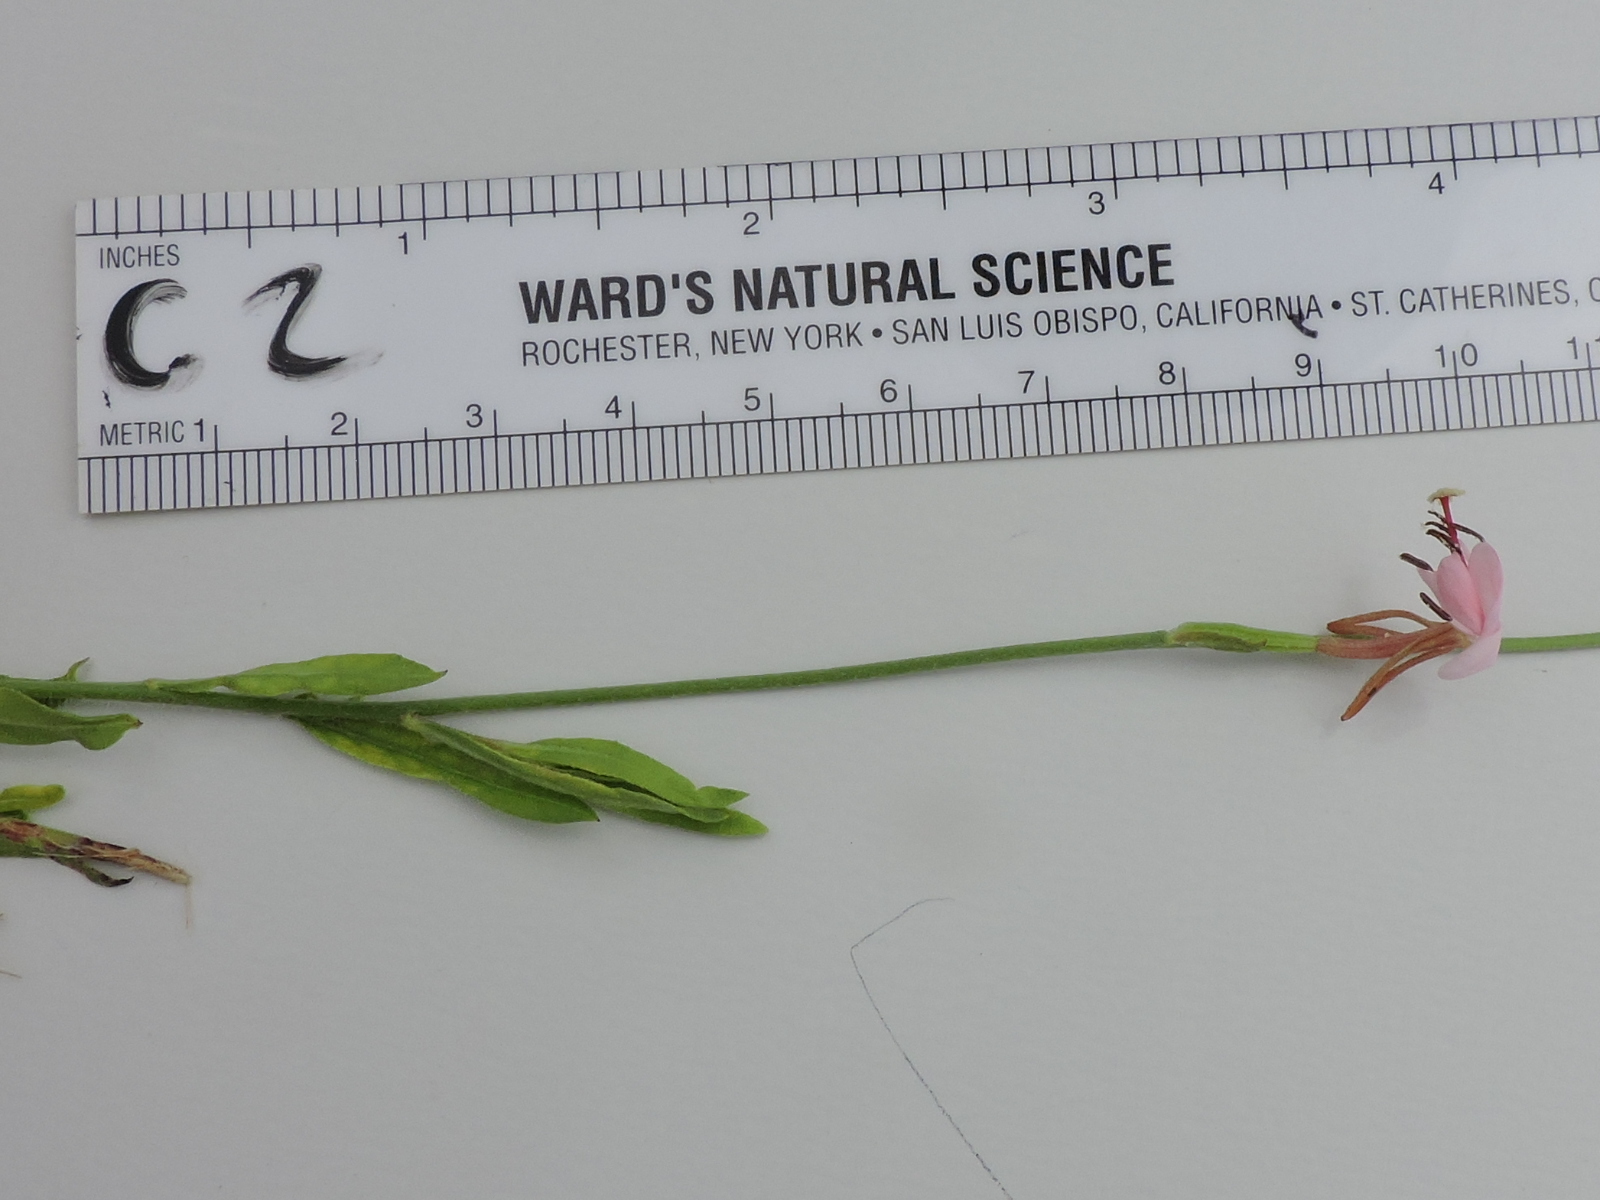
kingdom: Plantae
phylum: Tracheophyta
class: Magnoliopsida
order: Myrtales
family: Onagraceae
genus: Oenothera
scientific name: Oenothera suffulta
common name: Kisses
